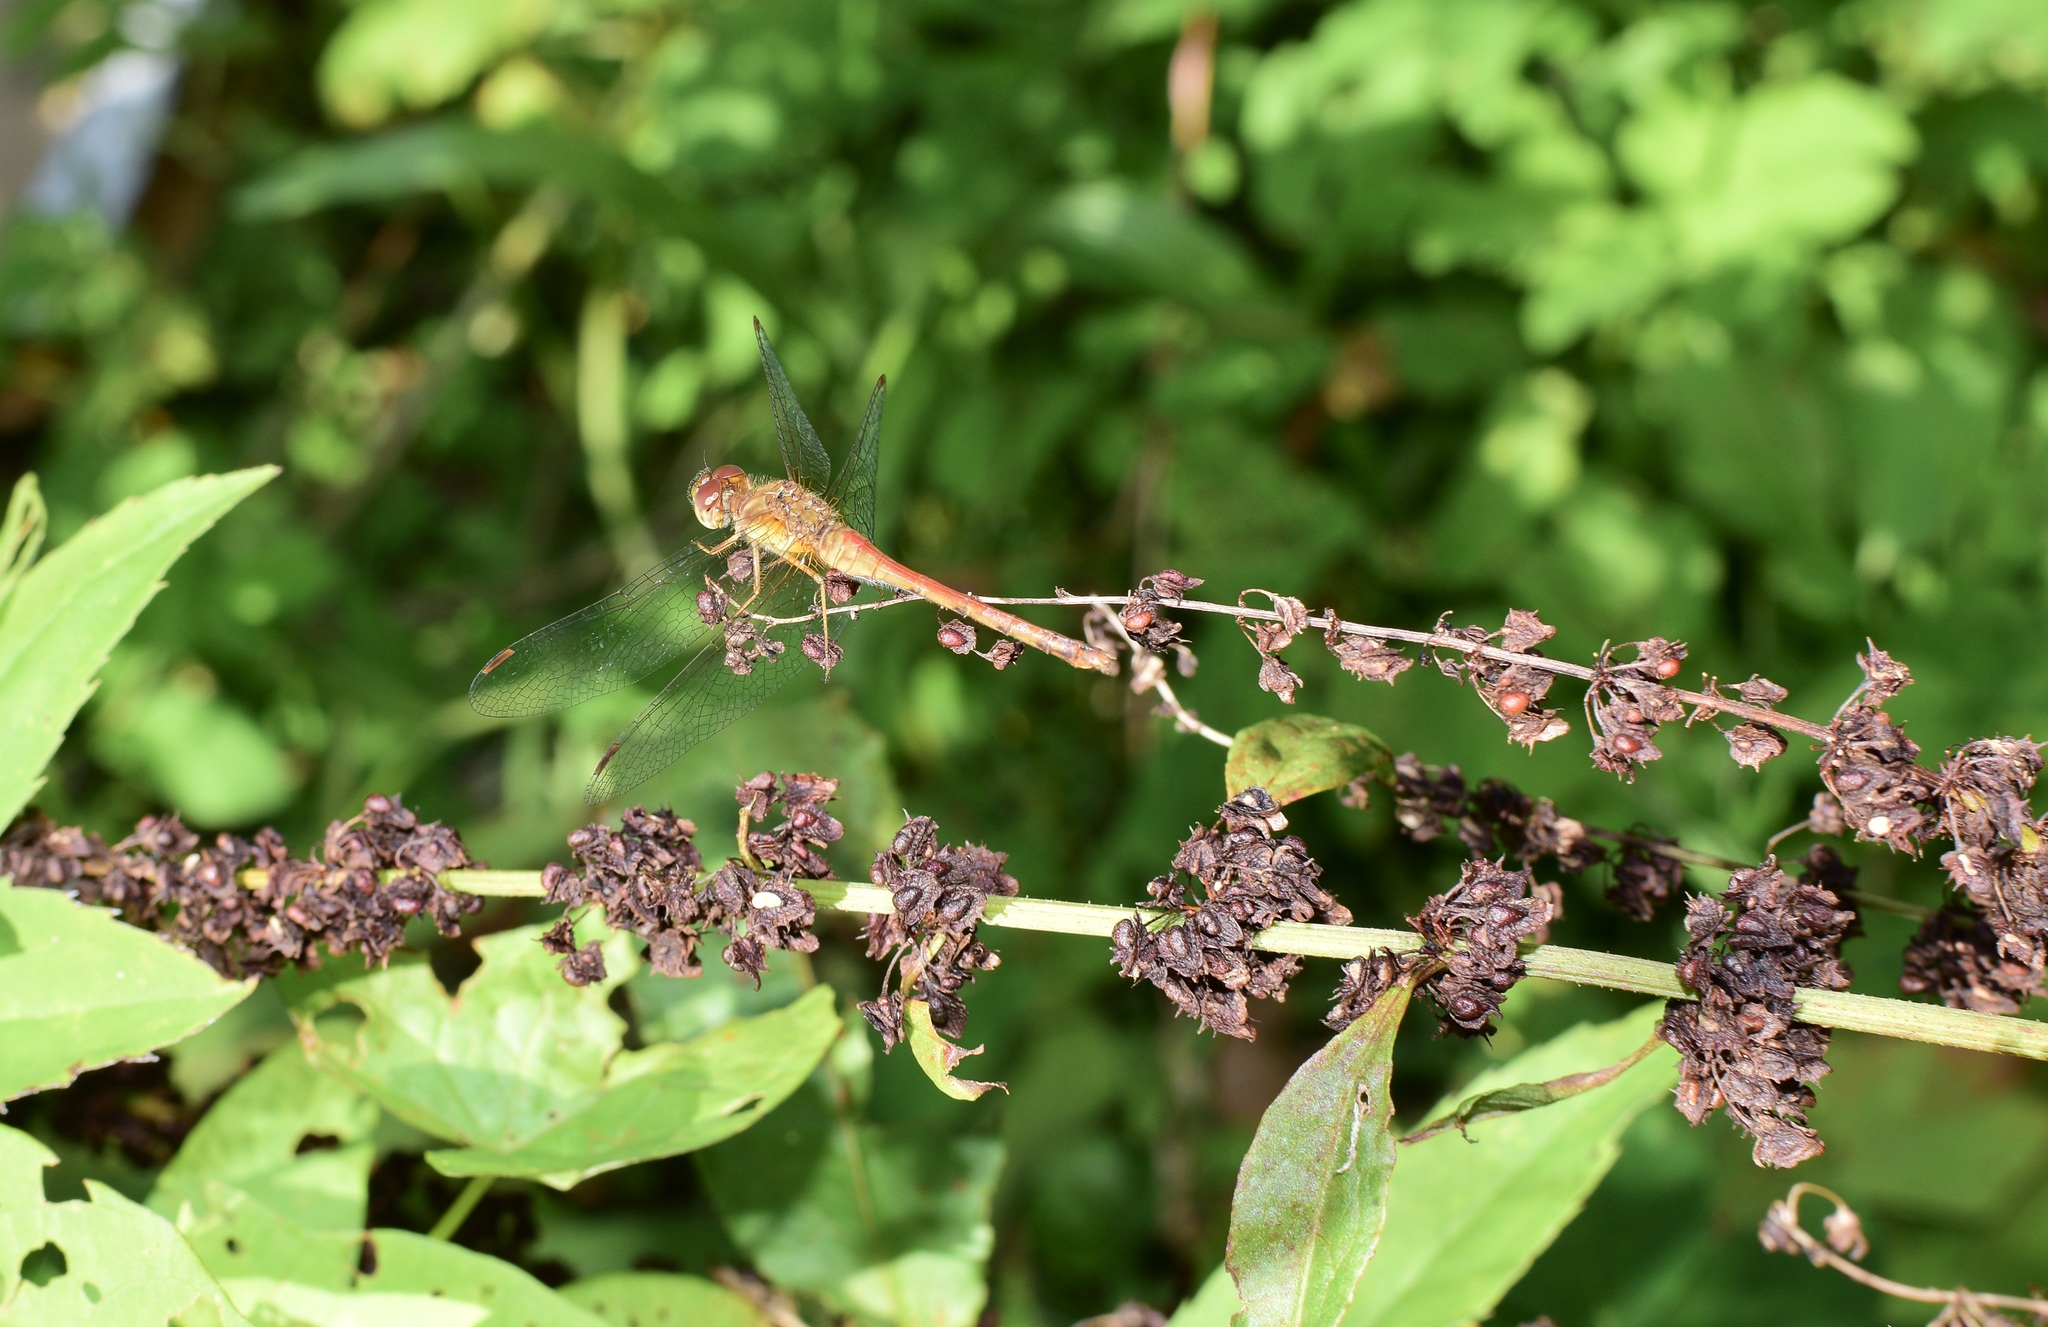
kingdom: Animalia
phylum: Arthropoda
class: Insecta
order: Odonata
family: Libellulidae
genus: Sympetrum
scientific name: Sympetrum vicinum
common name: Autumn meadowhawk
